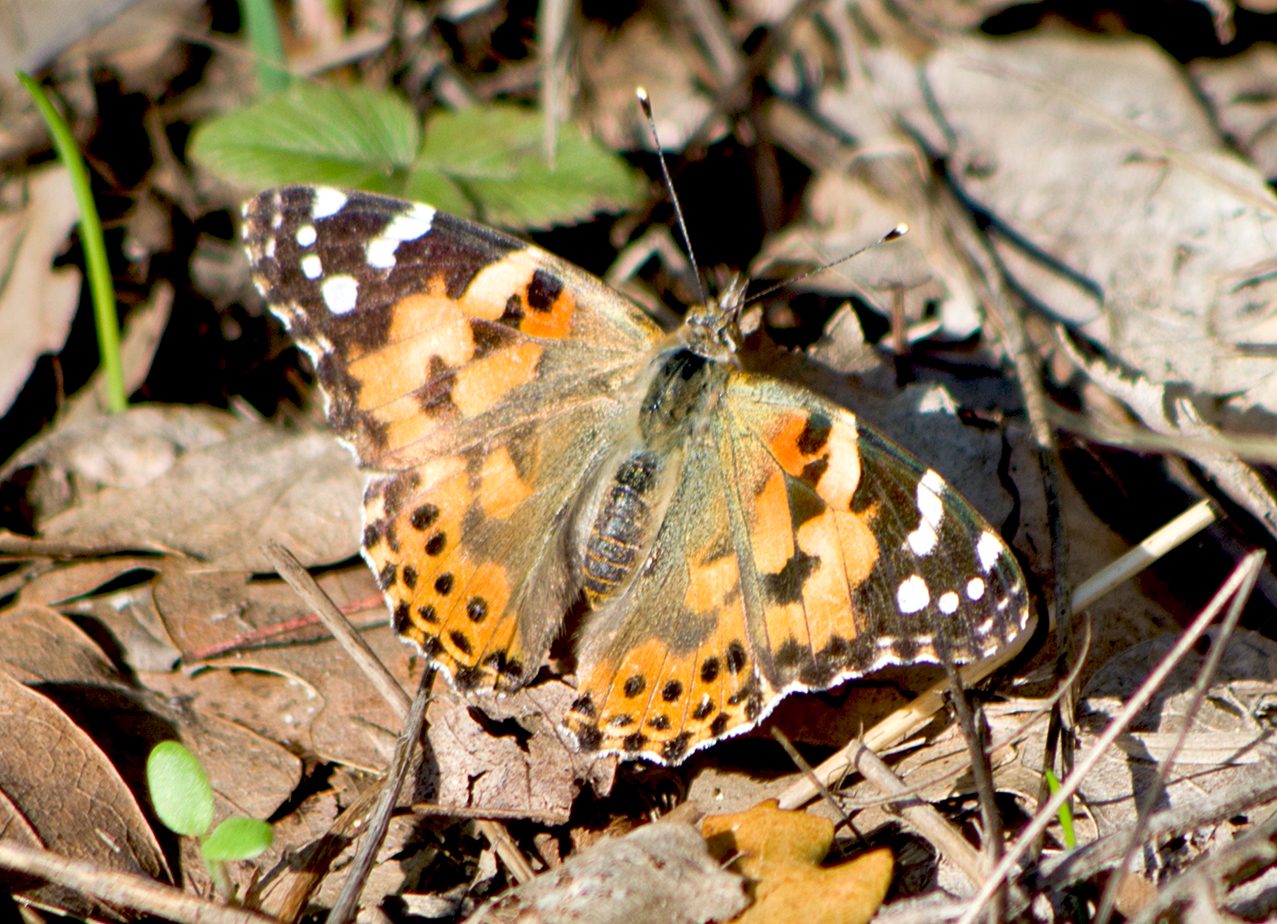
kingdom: Animalia
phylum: Arthropoda
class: Insecta
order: Lepidoptera
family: Nymphalidae
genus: Vanessa
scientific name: Vanessa cardui
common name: Painted lady
